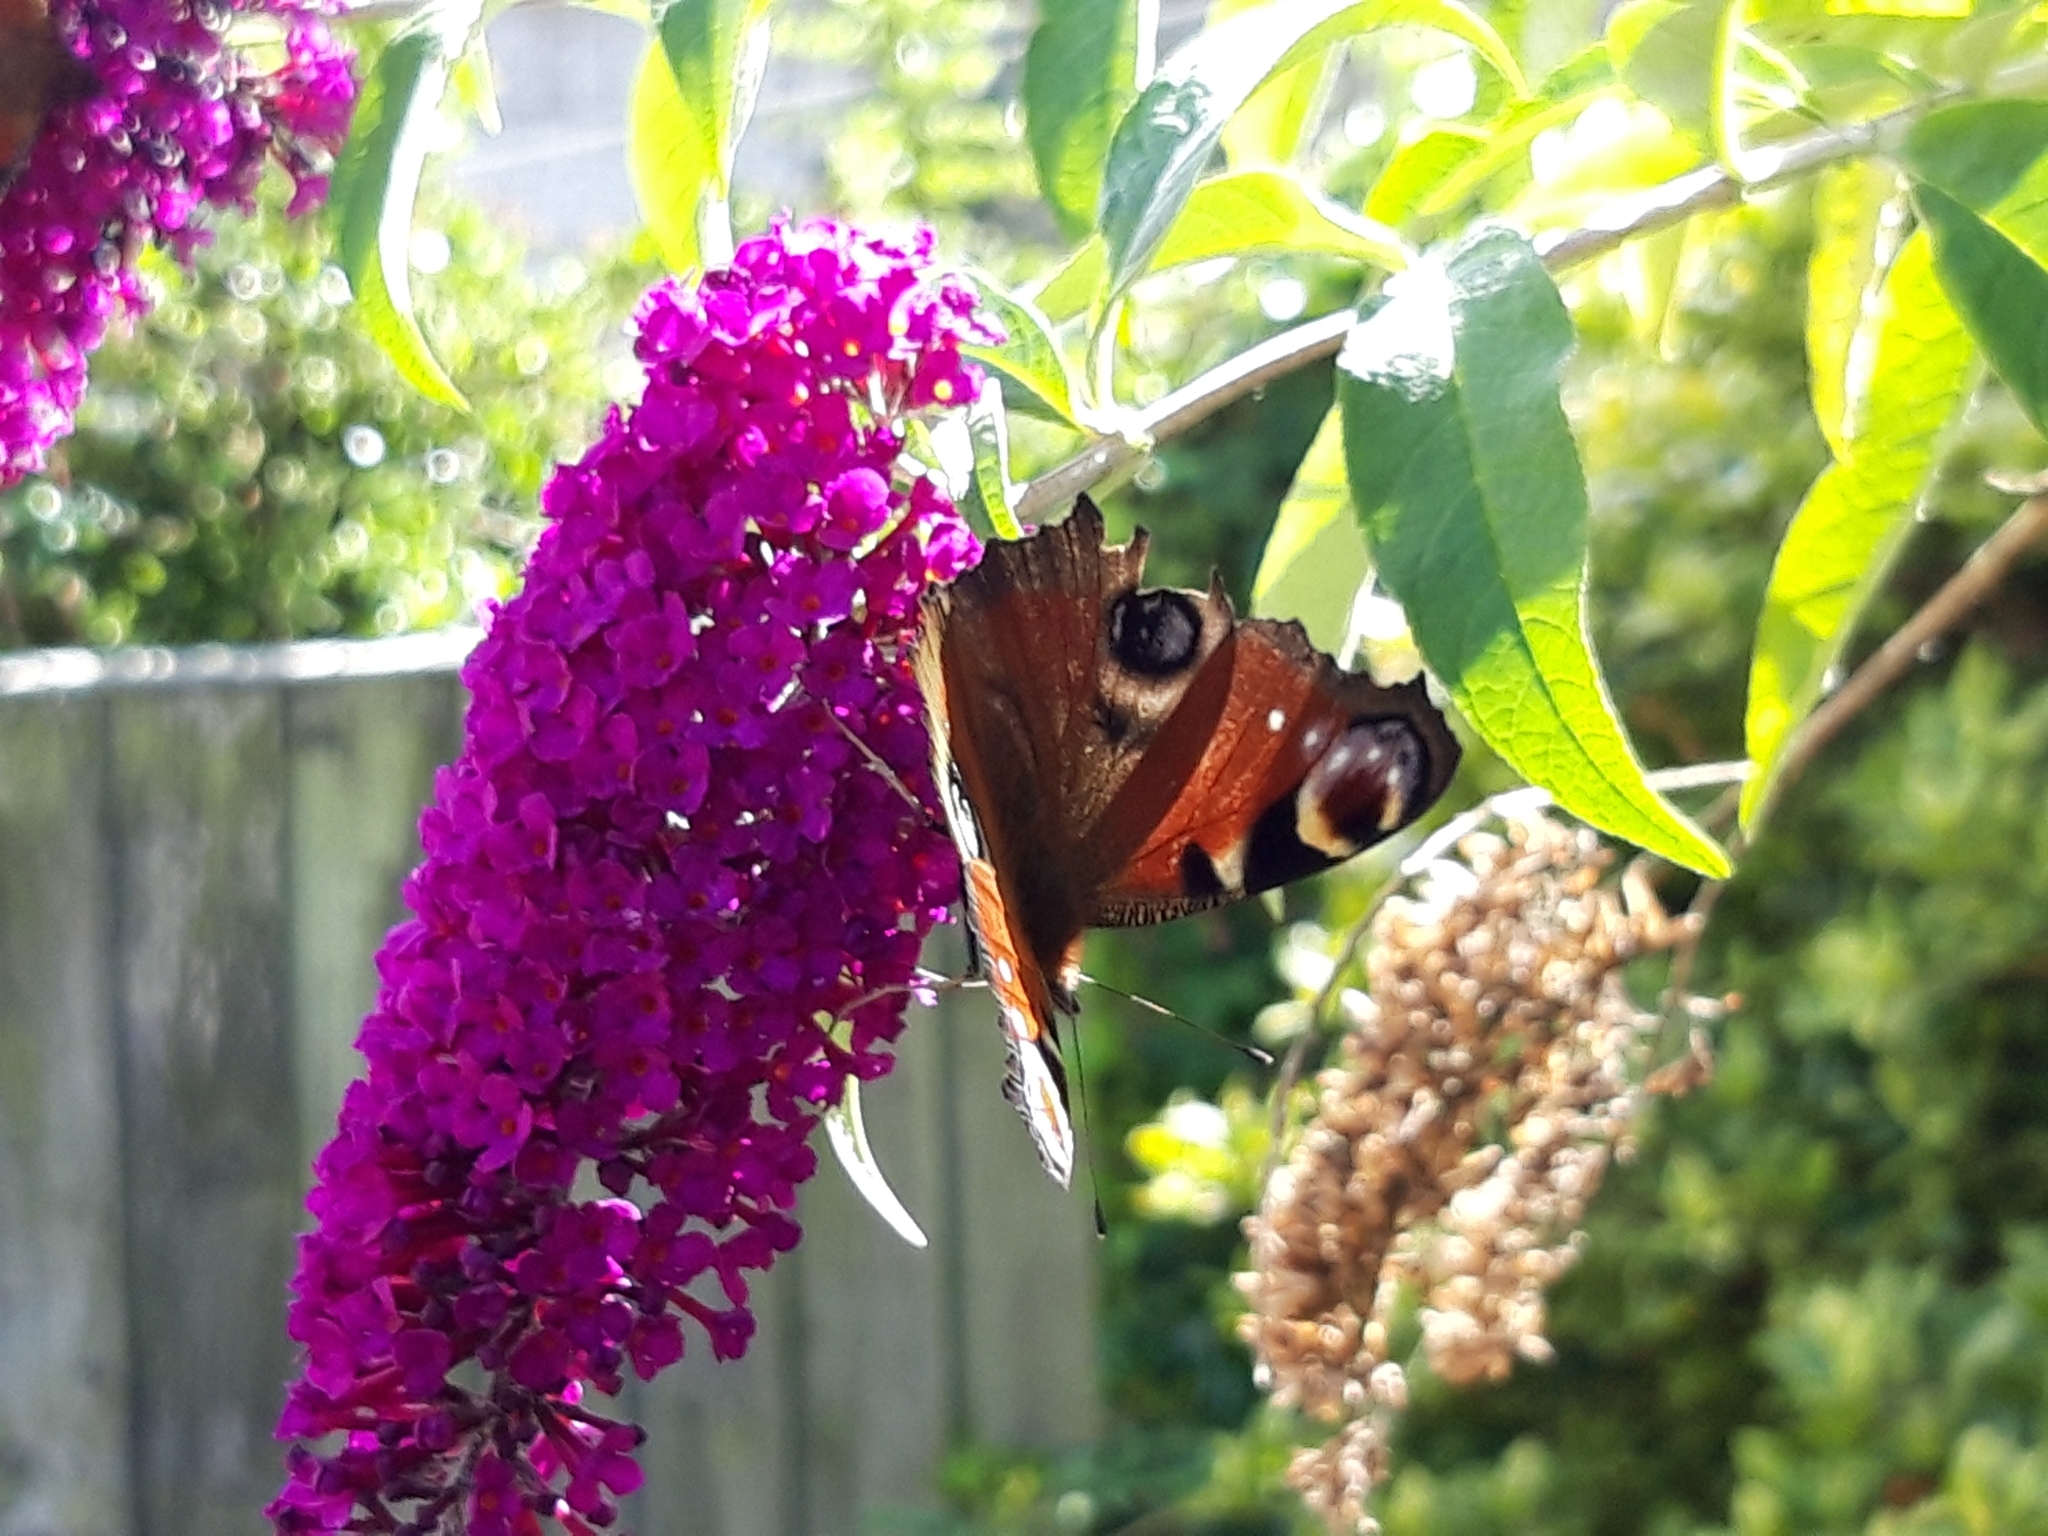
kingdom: Animalia
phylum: Arthropoda
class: Insecta
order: Lepidoptera
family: Nymphalidae
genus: Aglais
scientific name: Aglais io
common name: Peacock
